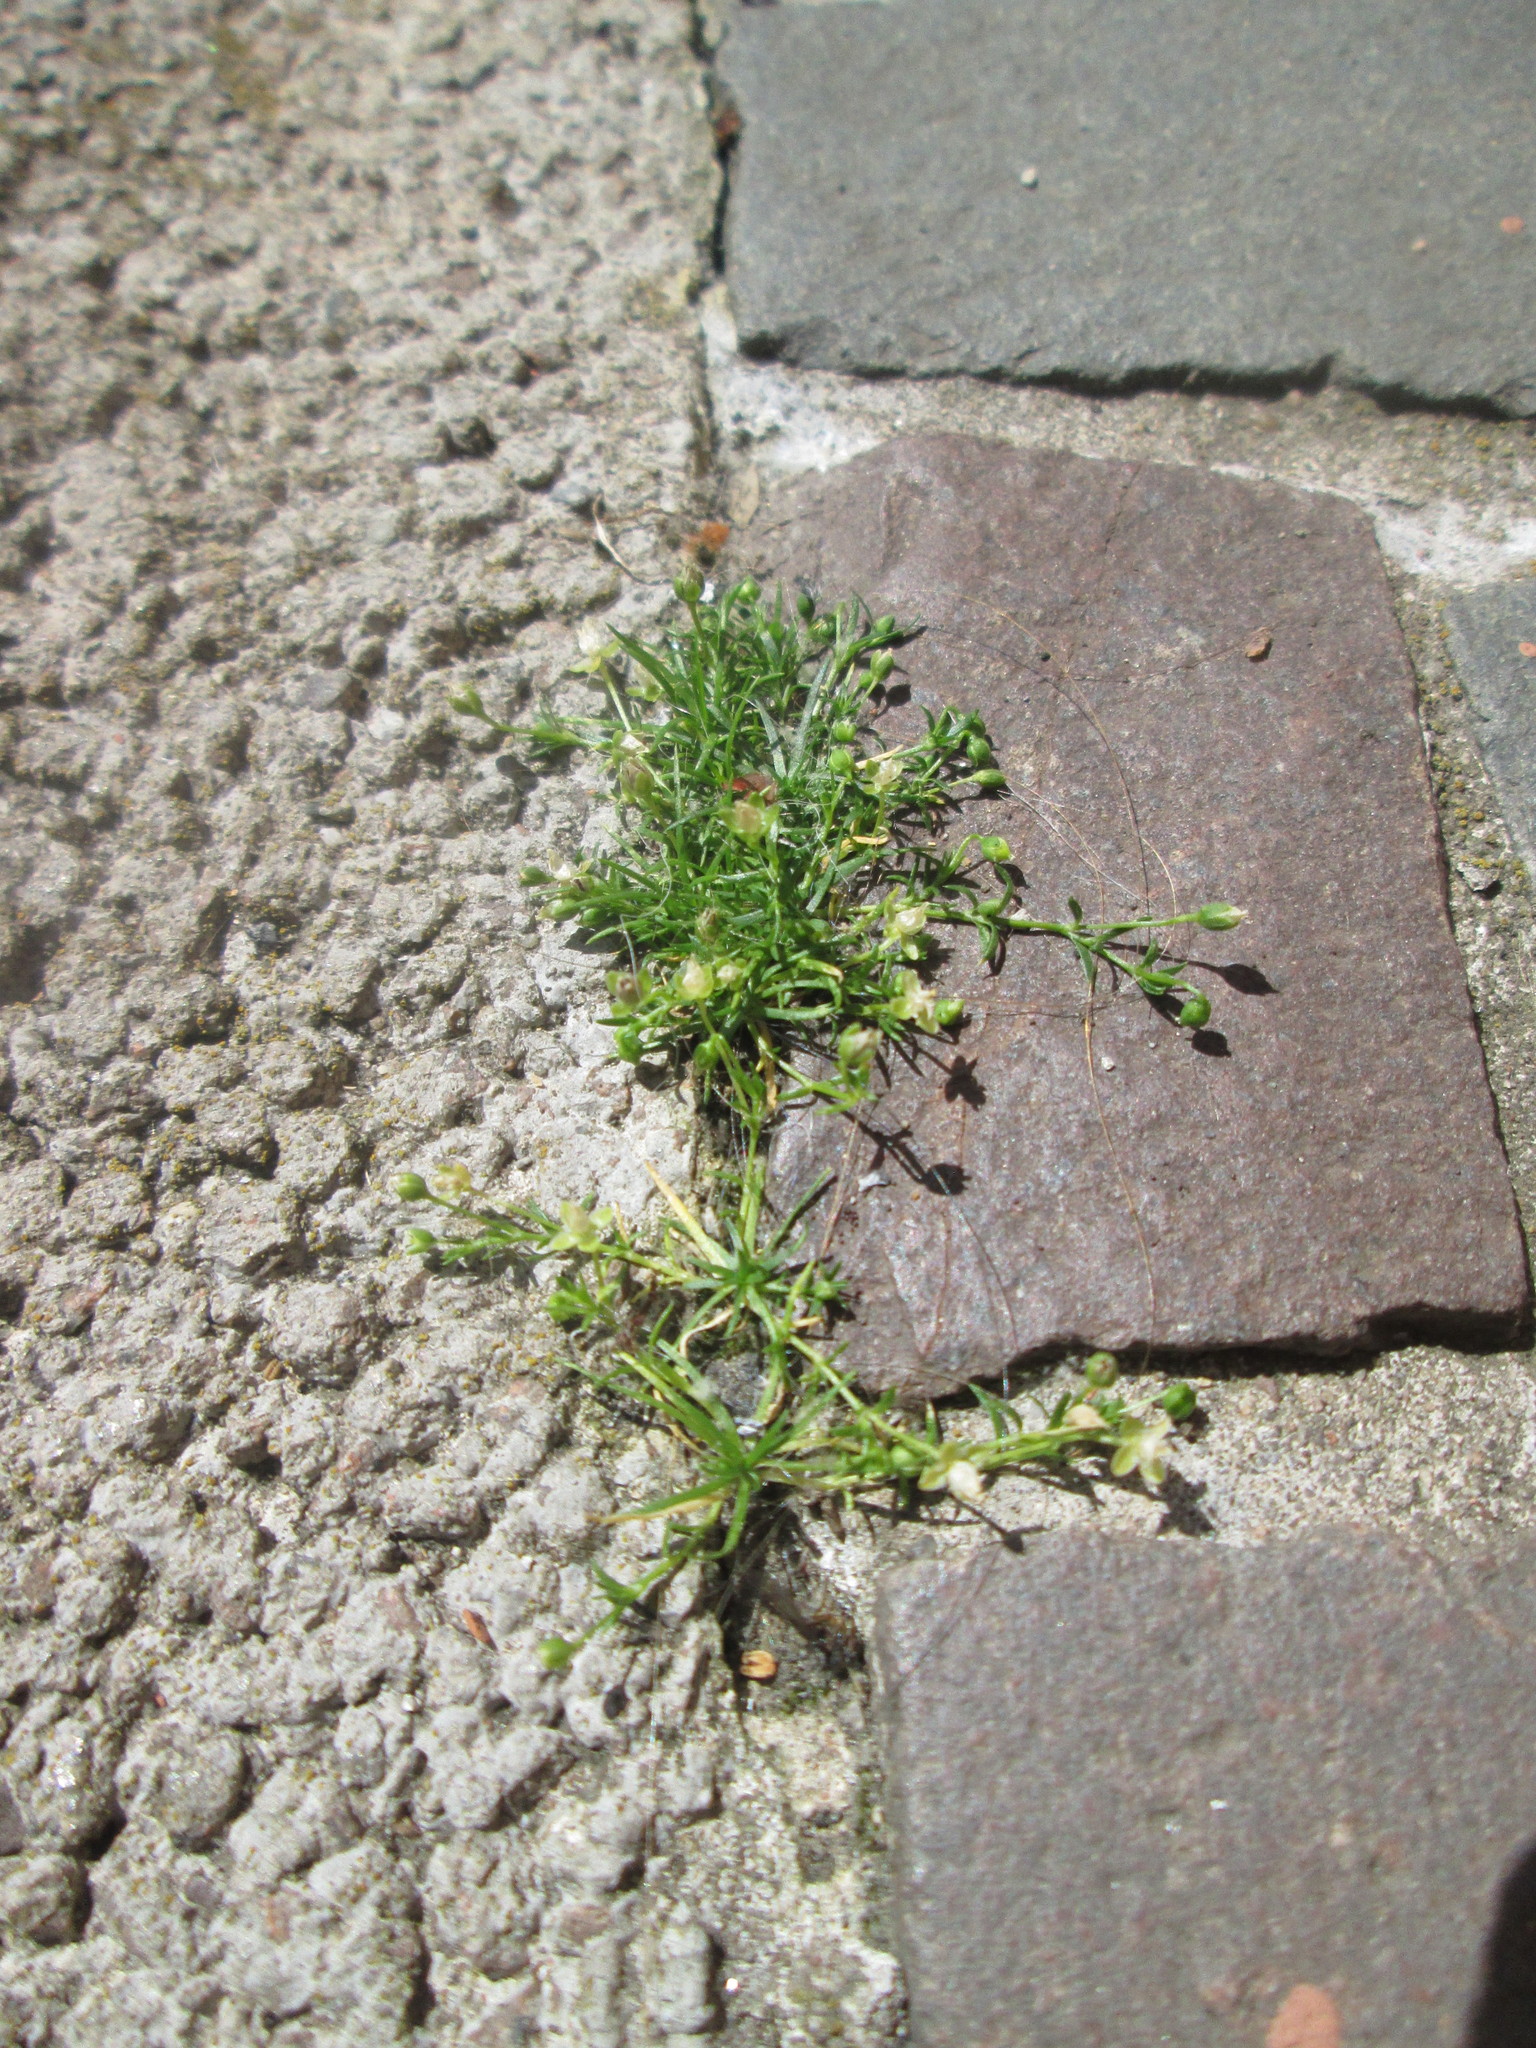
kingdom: Plantae
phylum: Tracheophyta
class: Magnoliopsida
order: Caryophyllales
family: Caryophyllaceae
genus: Sagina
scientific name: Sagina procumbens
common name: Procumbent pearlwort
